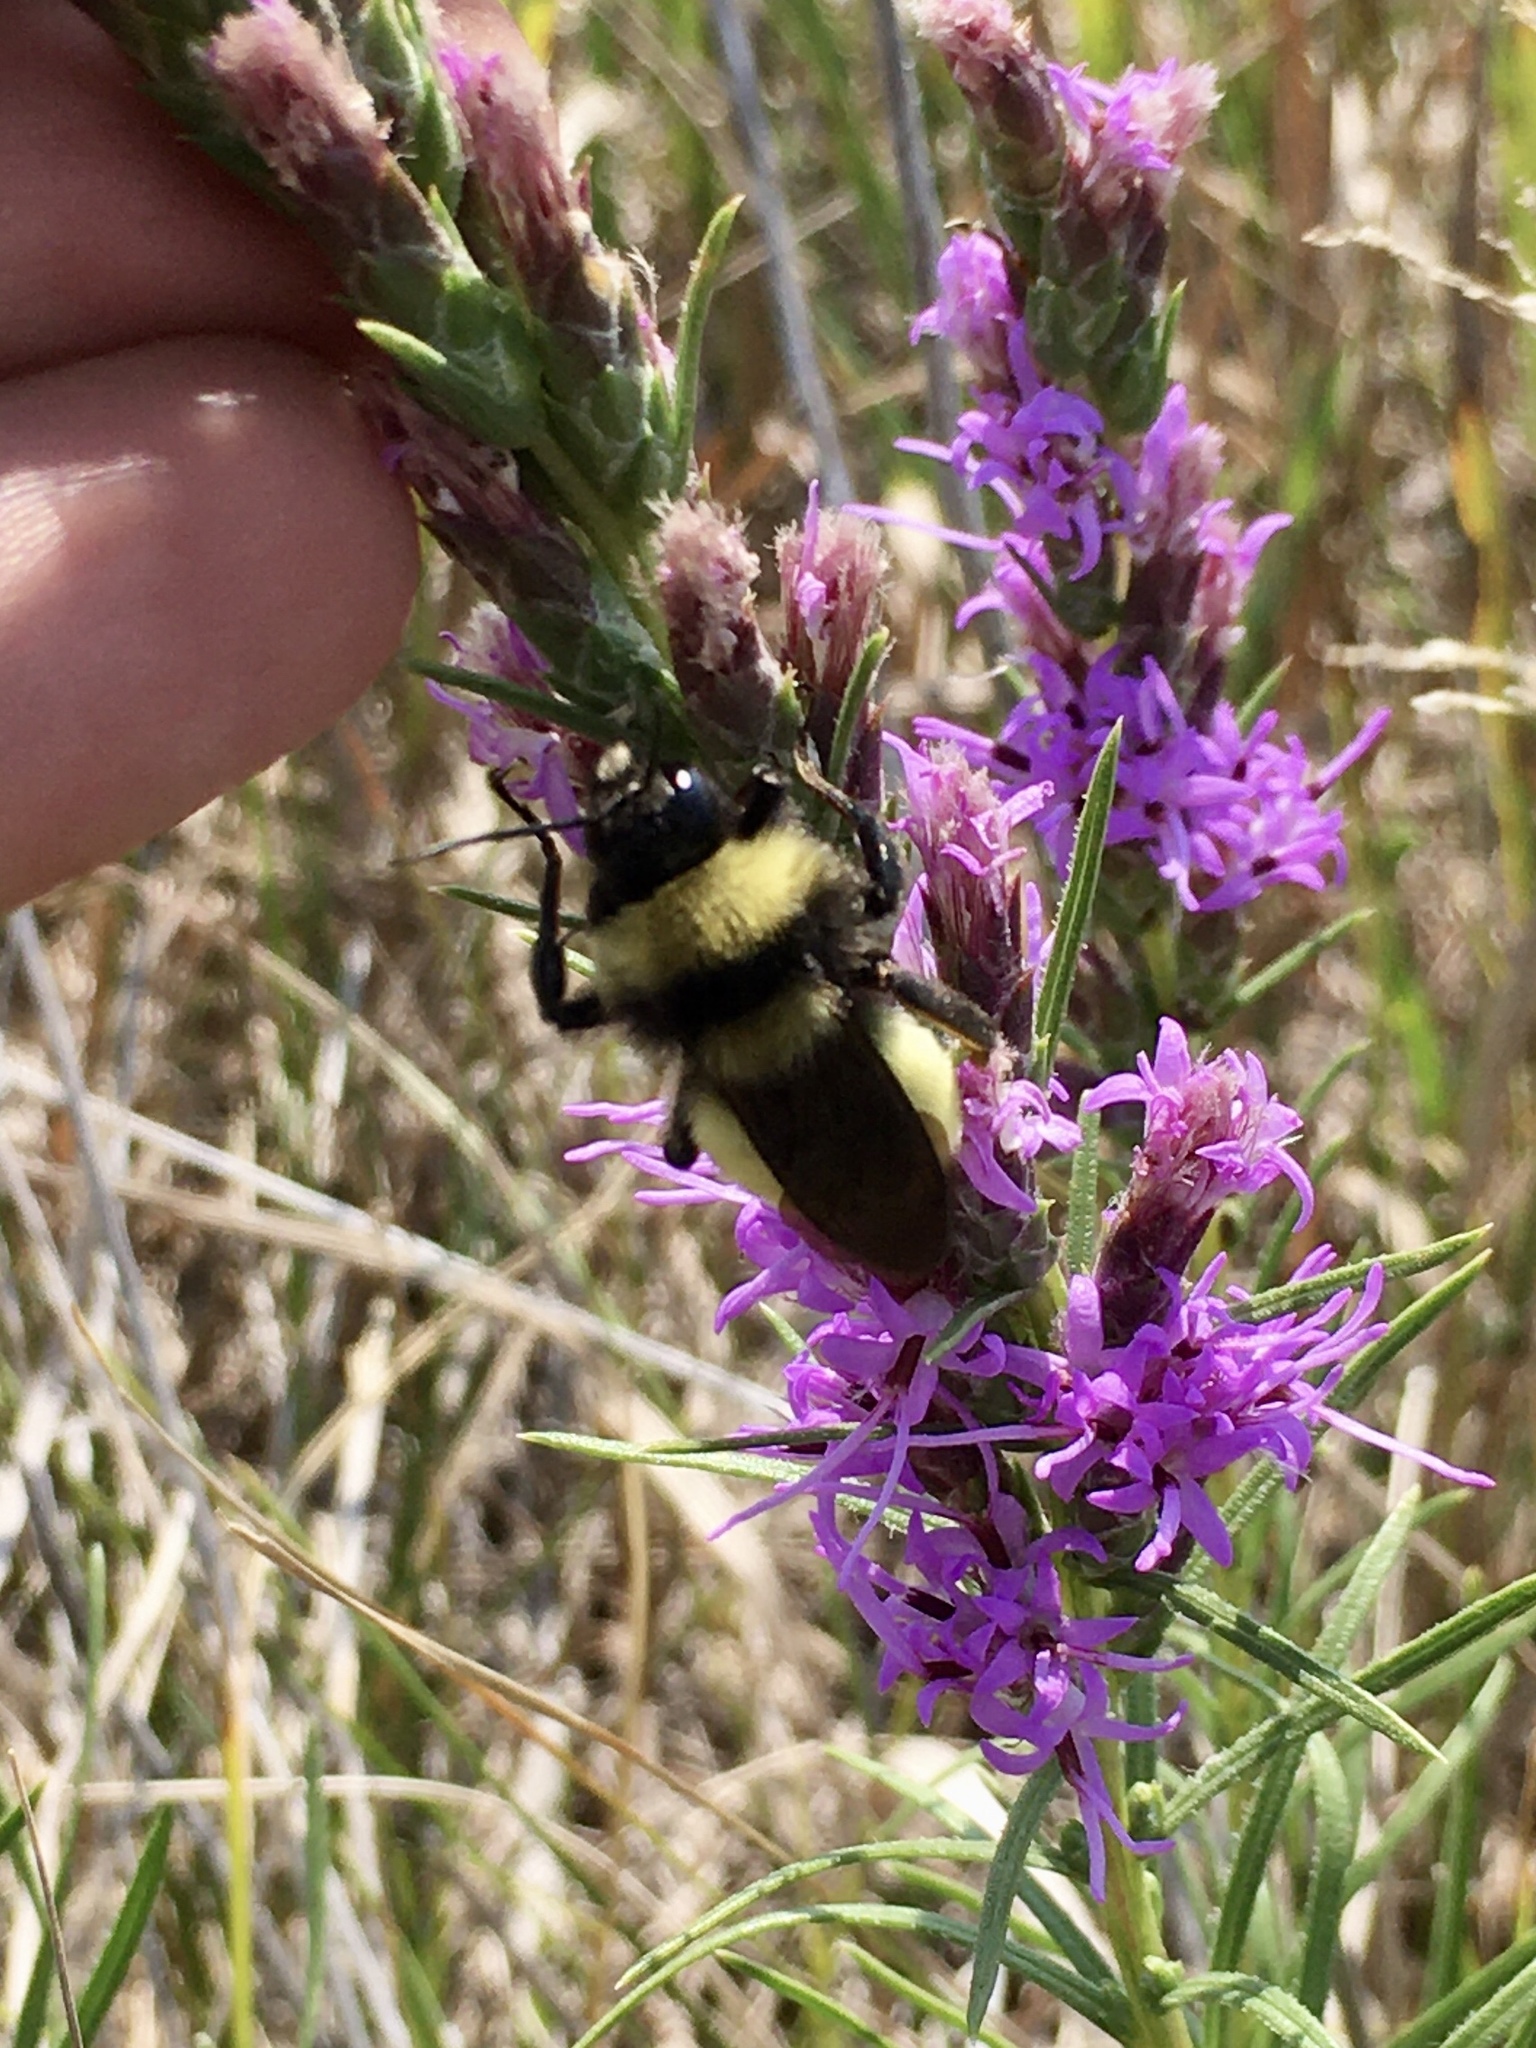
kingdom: Animalia
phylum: Arthropoda
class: Insecta
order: Hymenoptera
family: Apidae
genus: Bombus
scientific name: Bombus pensylvanicus
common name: Bumble bee
